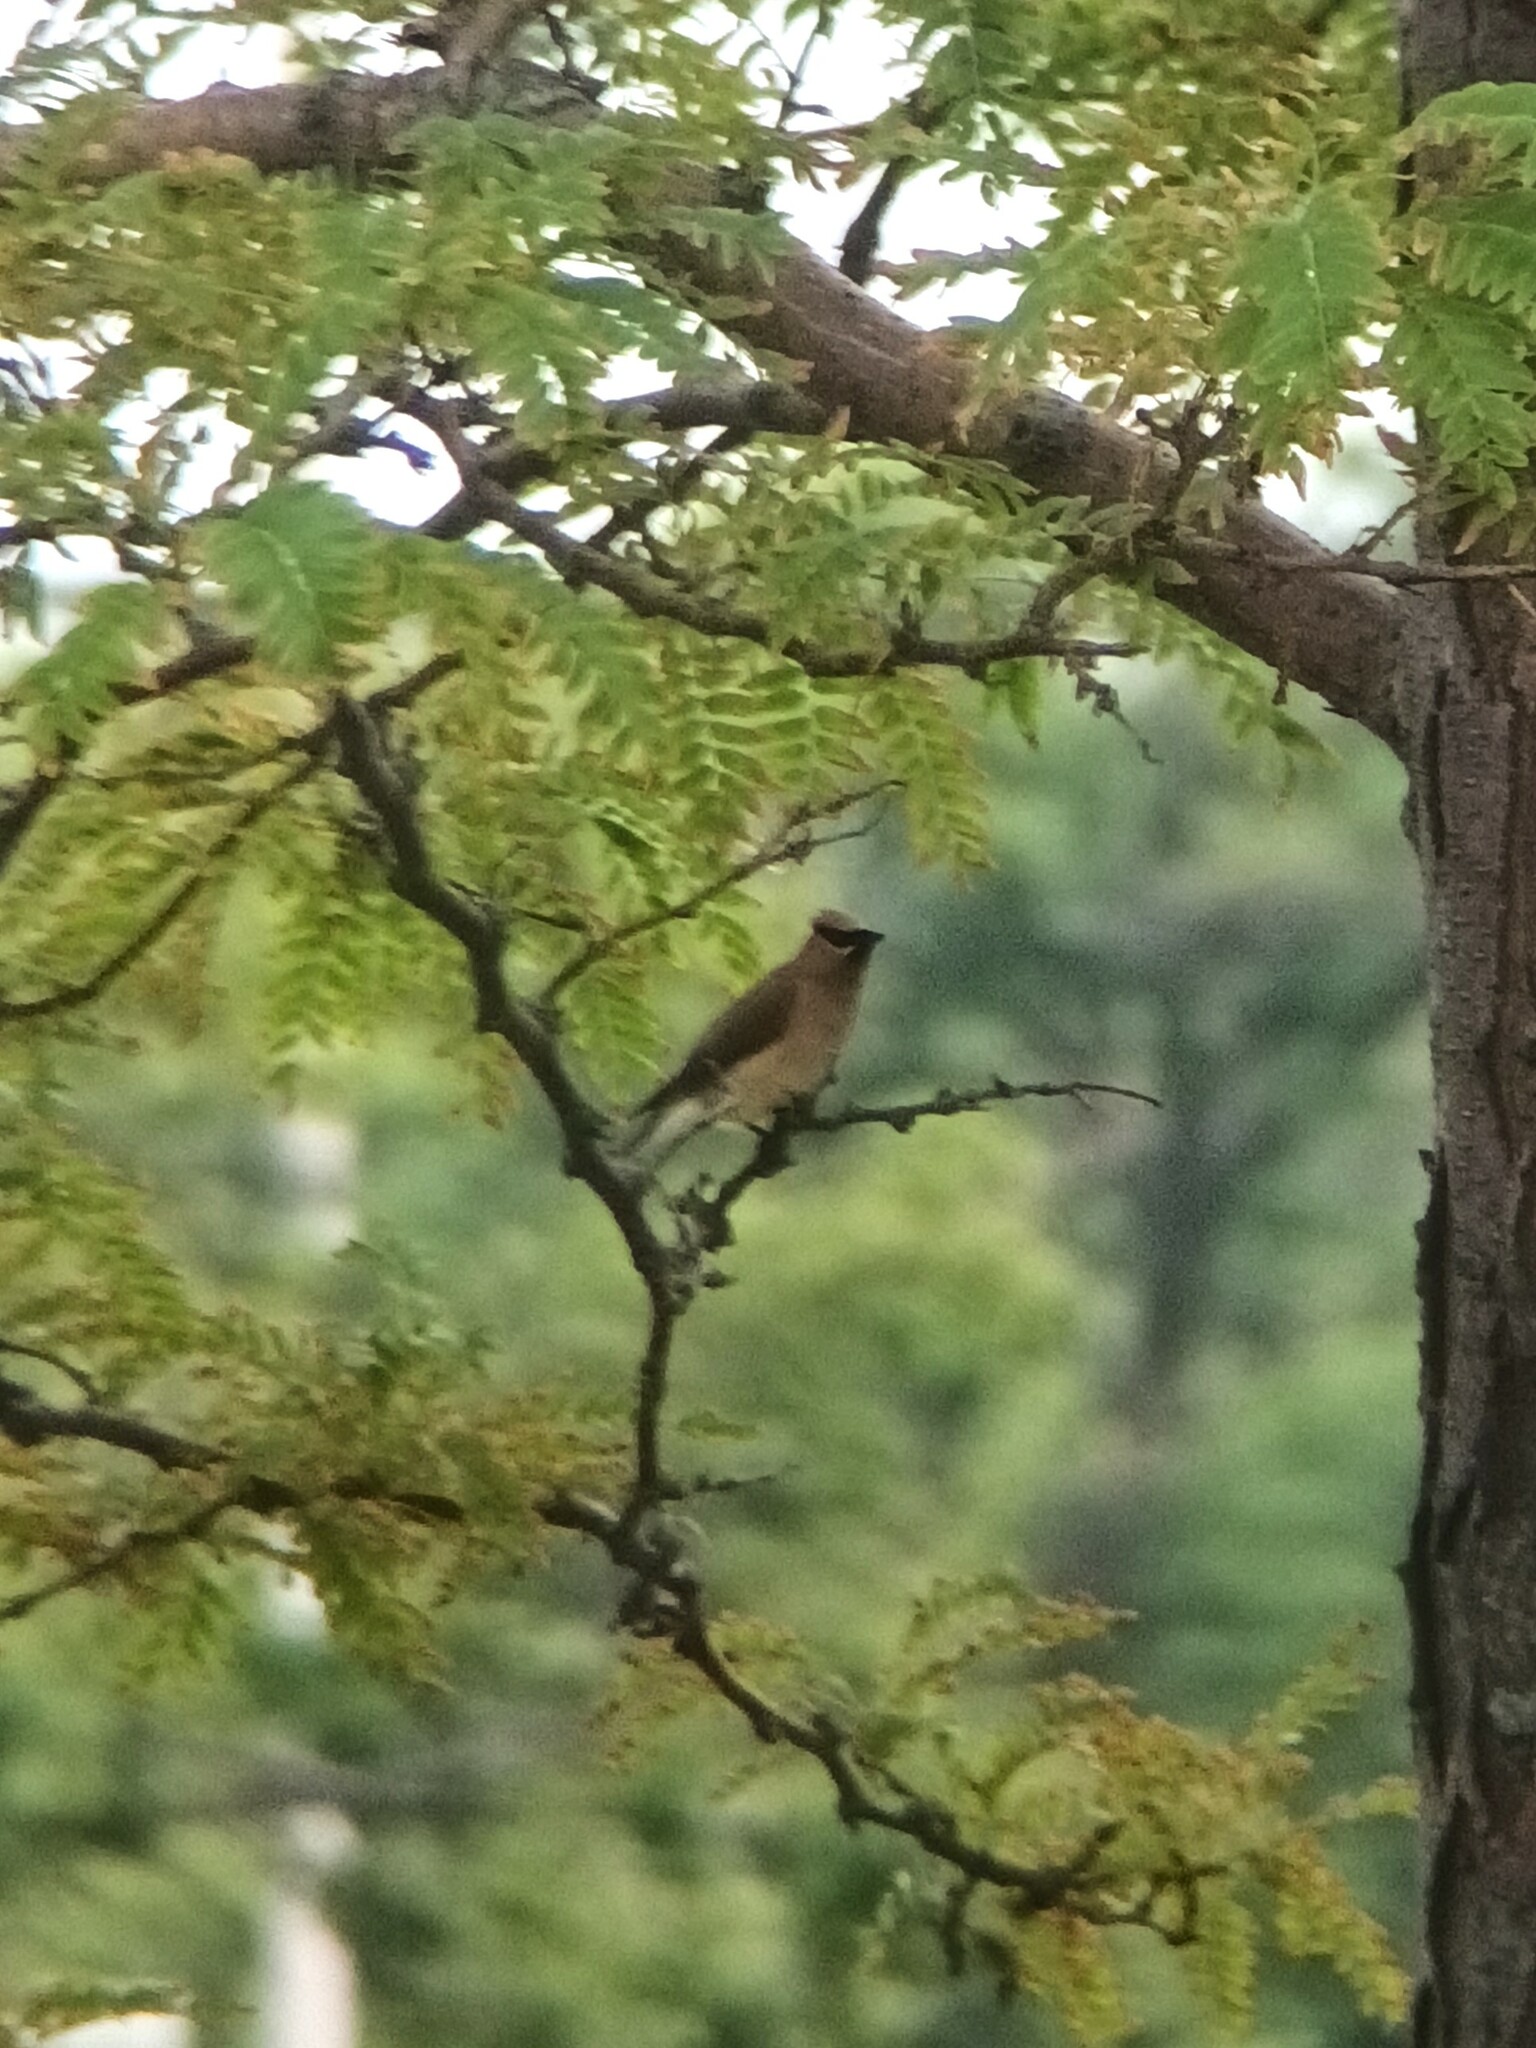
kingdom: Animalia
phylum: Chordata
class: Aves
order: Passeriformes
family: Bombycillidae
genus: Bombycilla
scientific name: Bombycilla cedrorum
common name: Cedar waxwing
